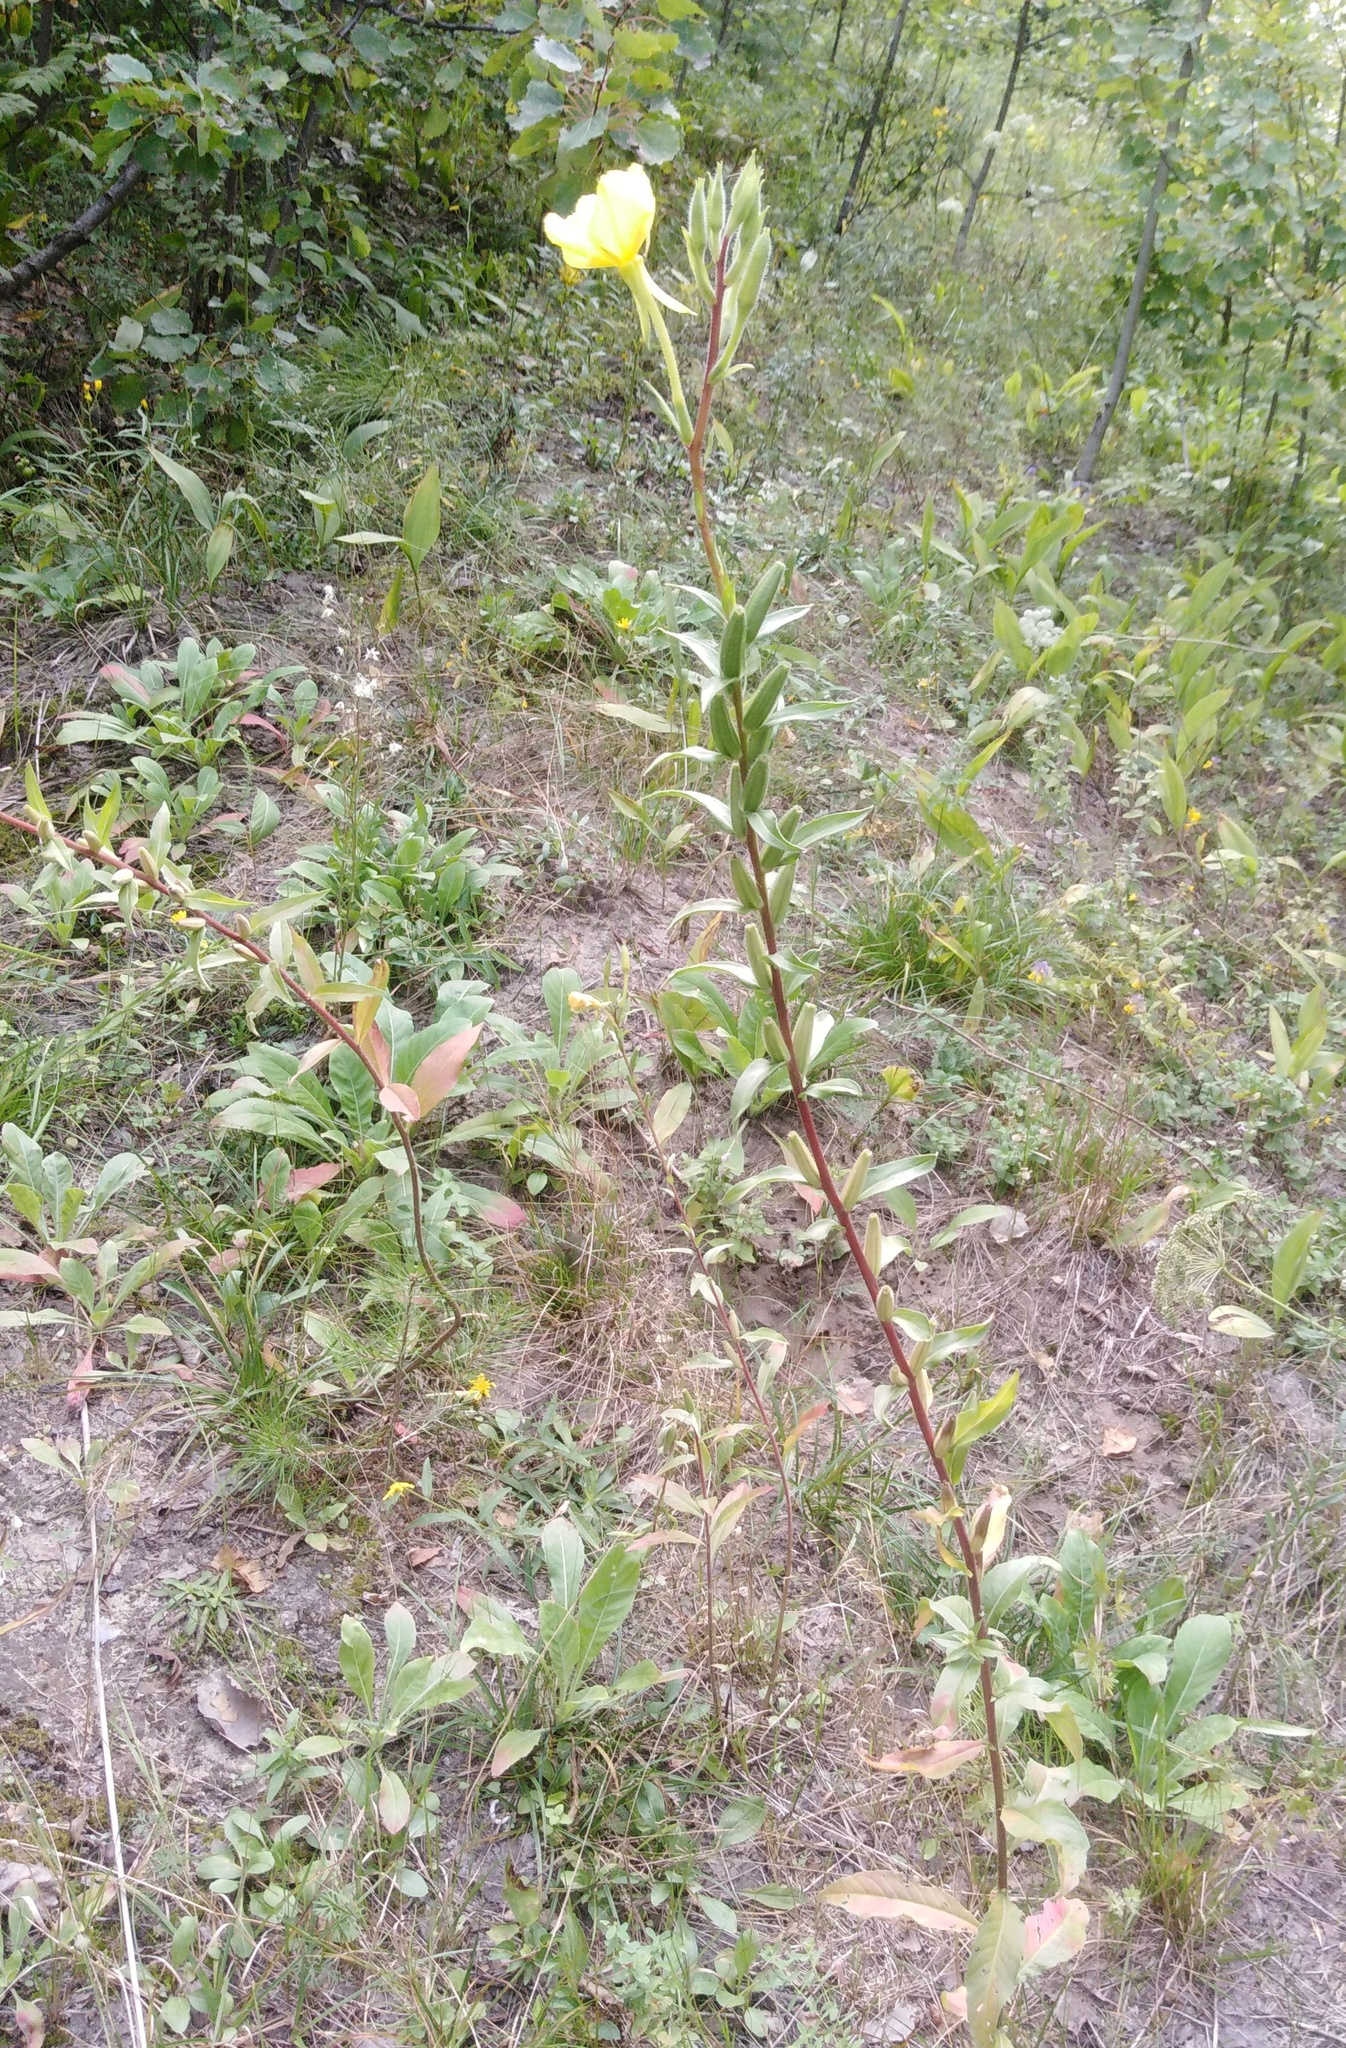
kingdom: Plantae
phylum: Tracheophyta
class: Magnoliopsida
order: Myrtales
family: Onagraceae
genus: Oenothera
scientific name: Oenothera rubricaulis
